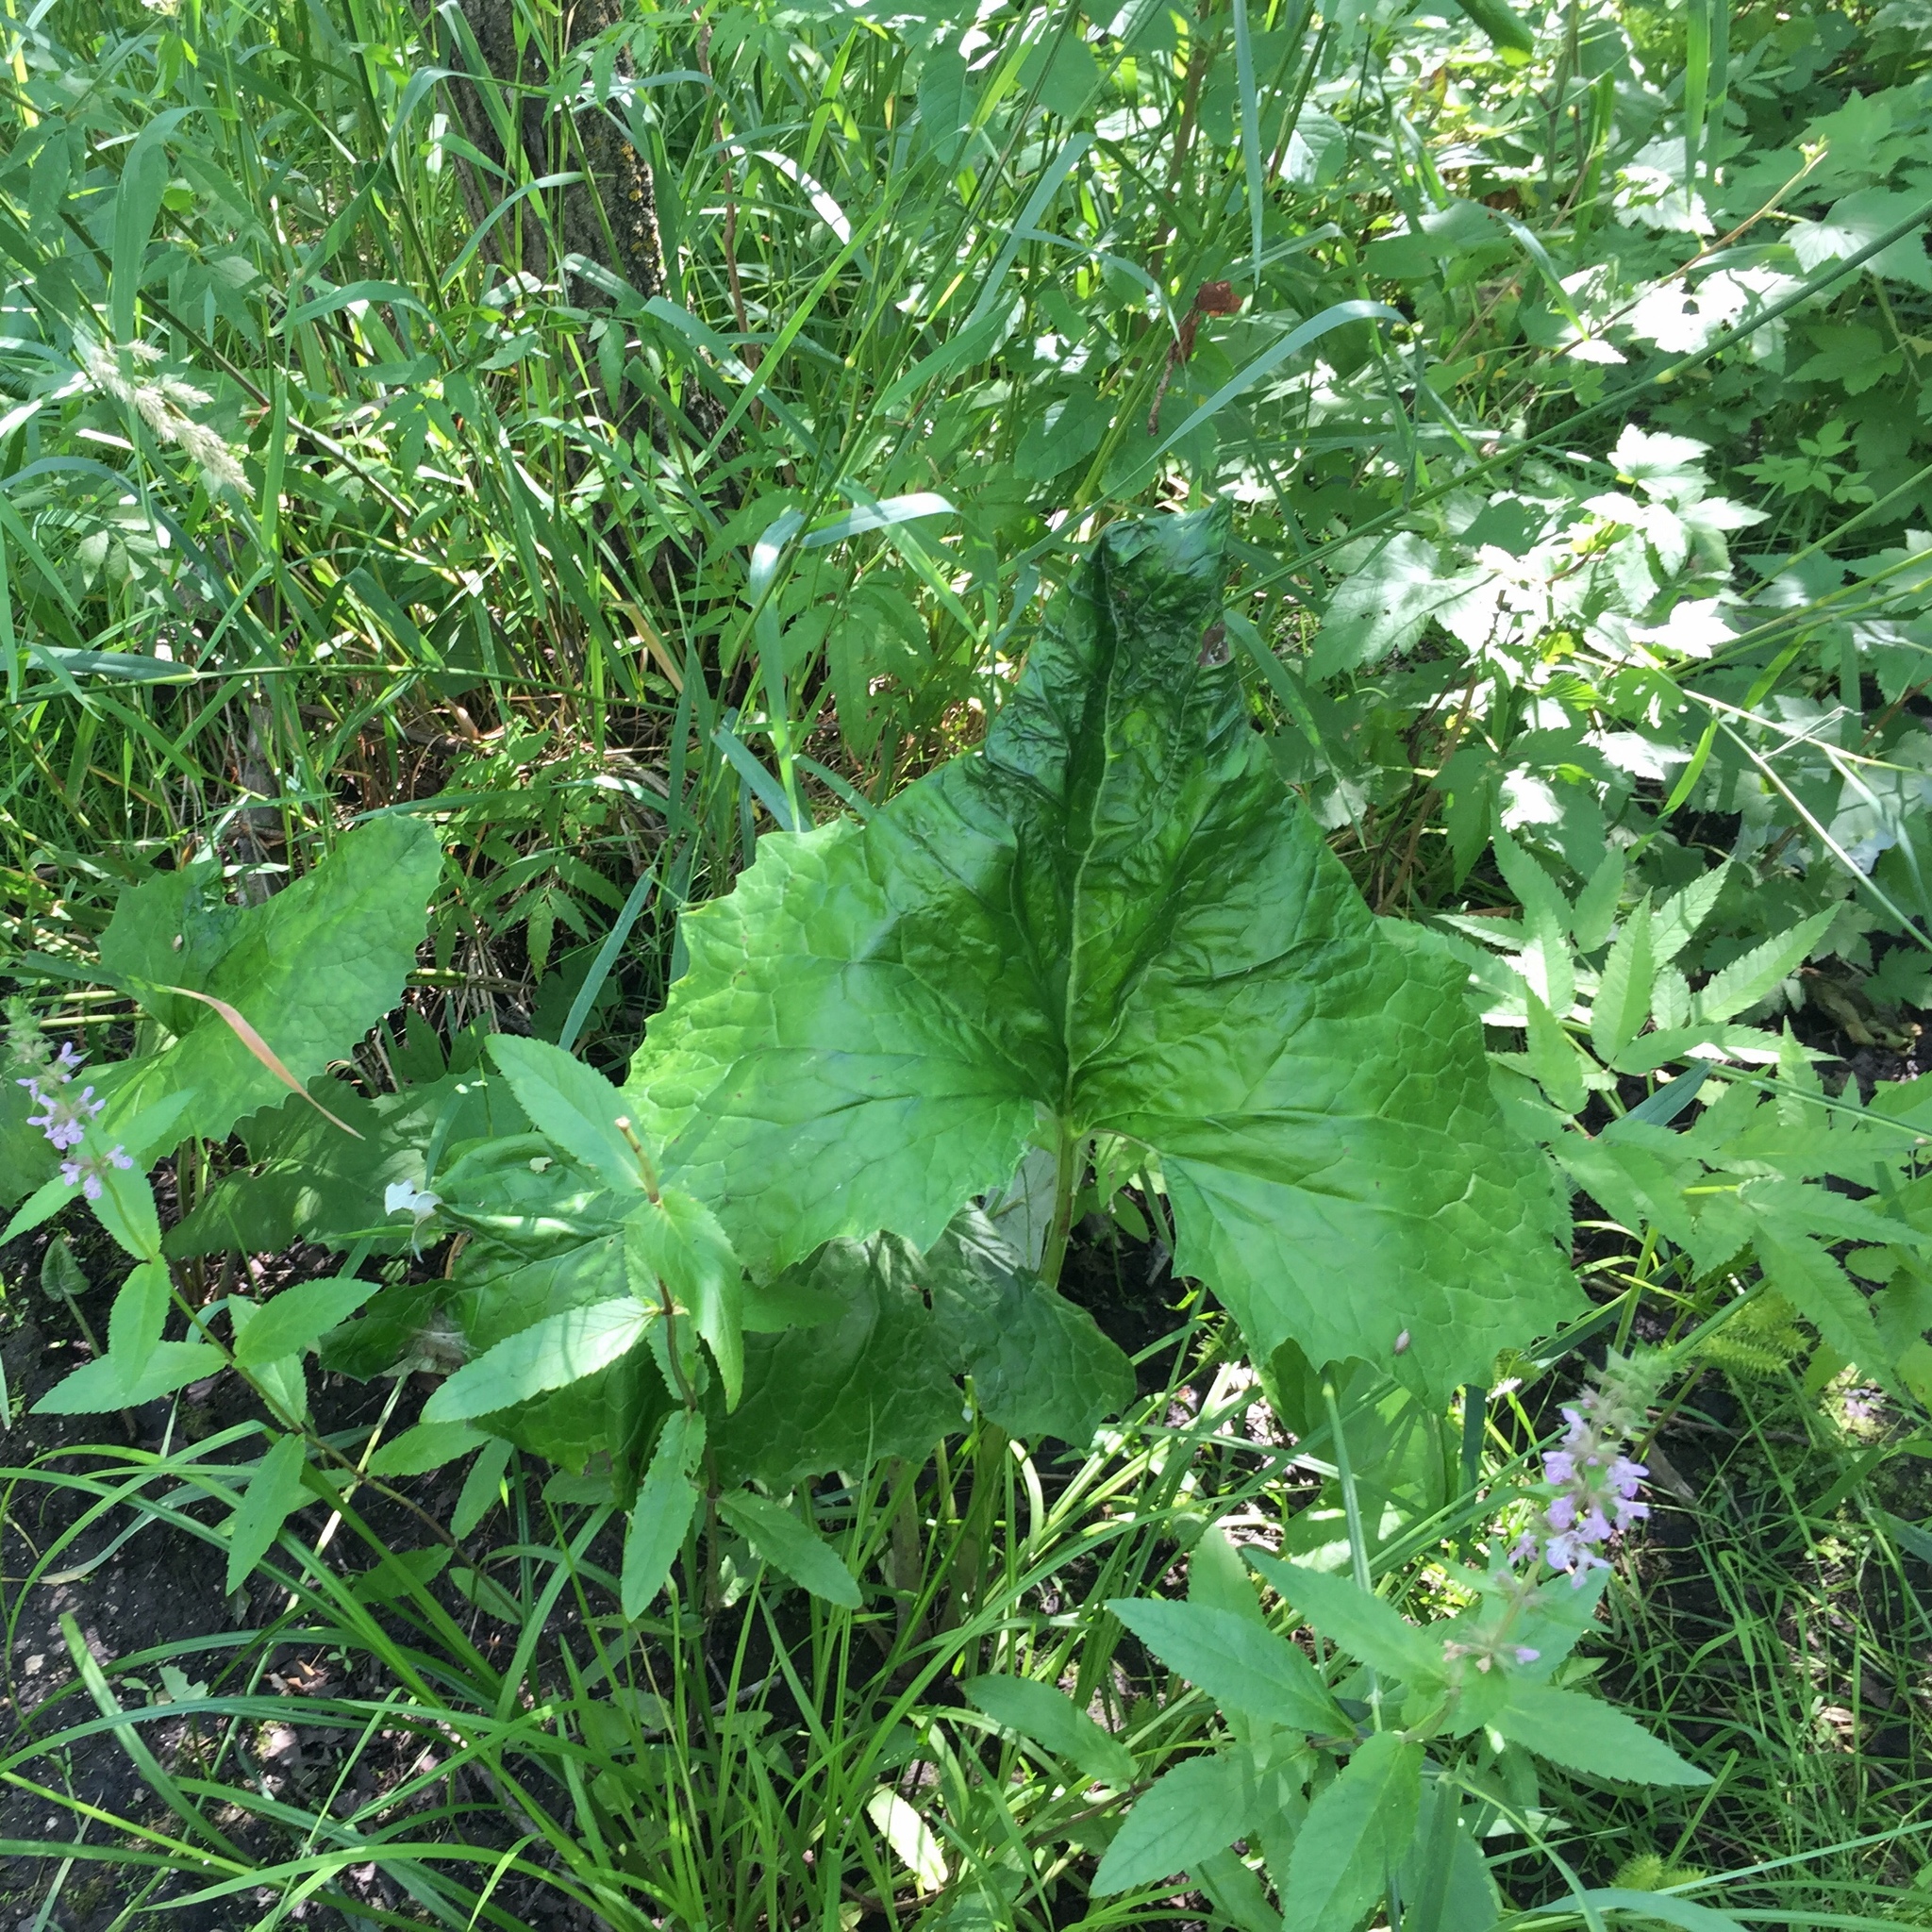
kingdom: Plantae
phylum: Tracheophyta
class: Magnoliopsida
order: Asterales
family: Asteraceae
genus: Petasites
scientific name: Petasites frigidus
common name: Arctic butterbur
